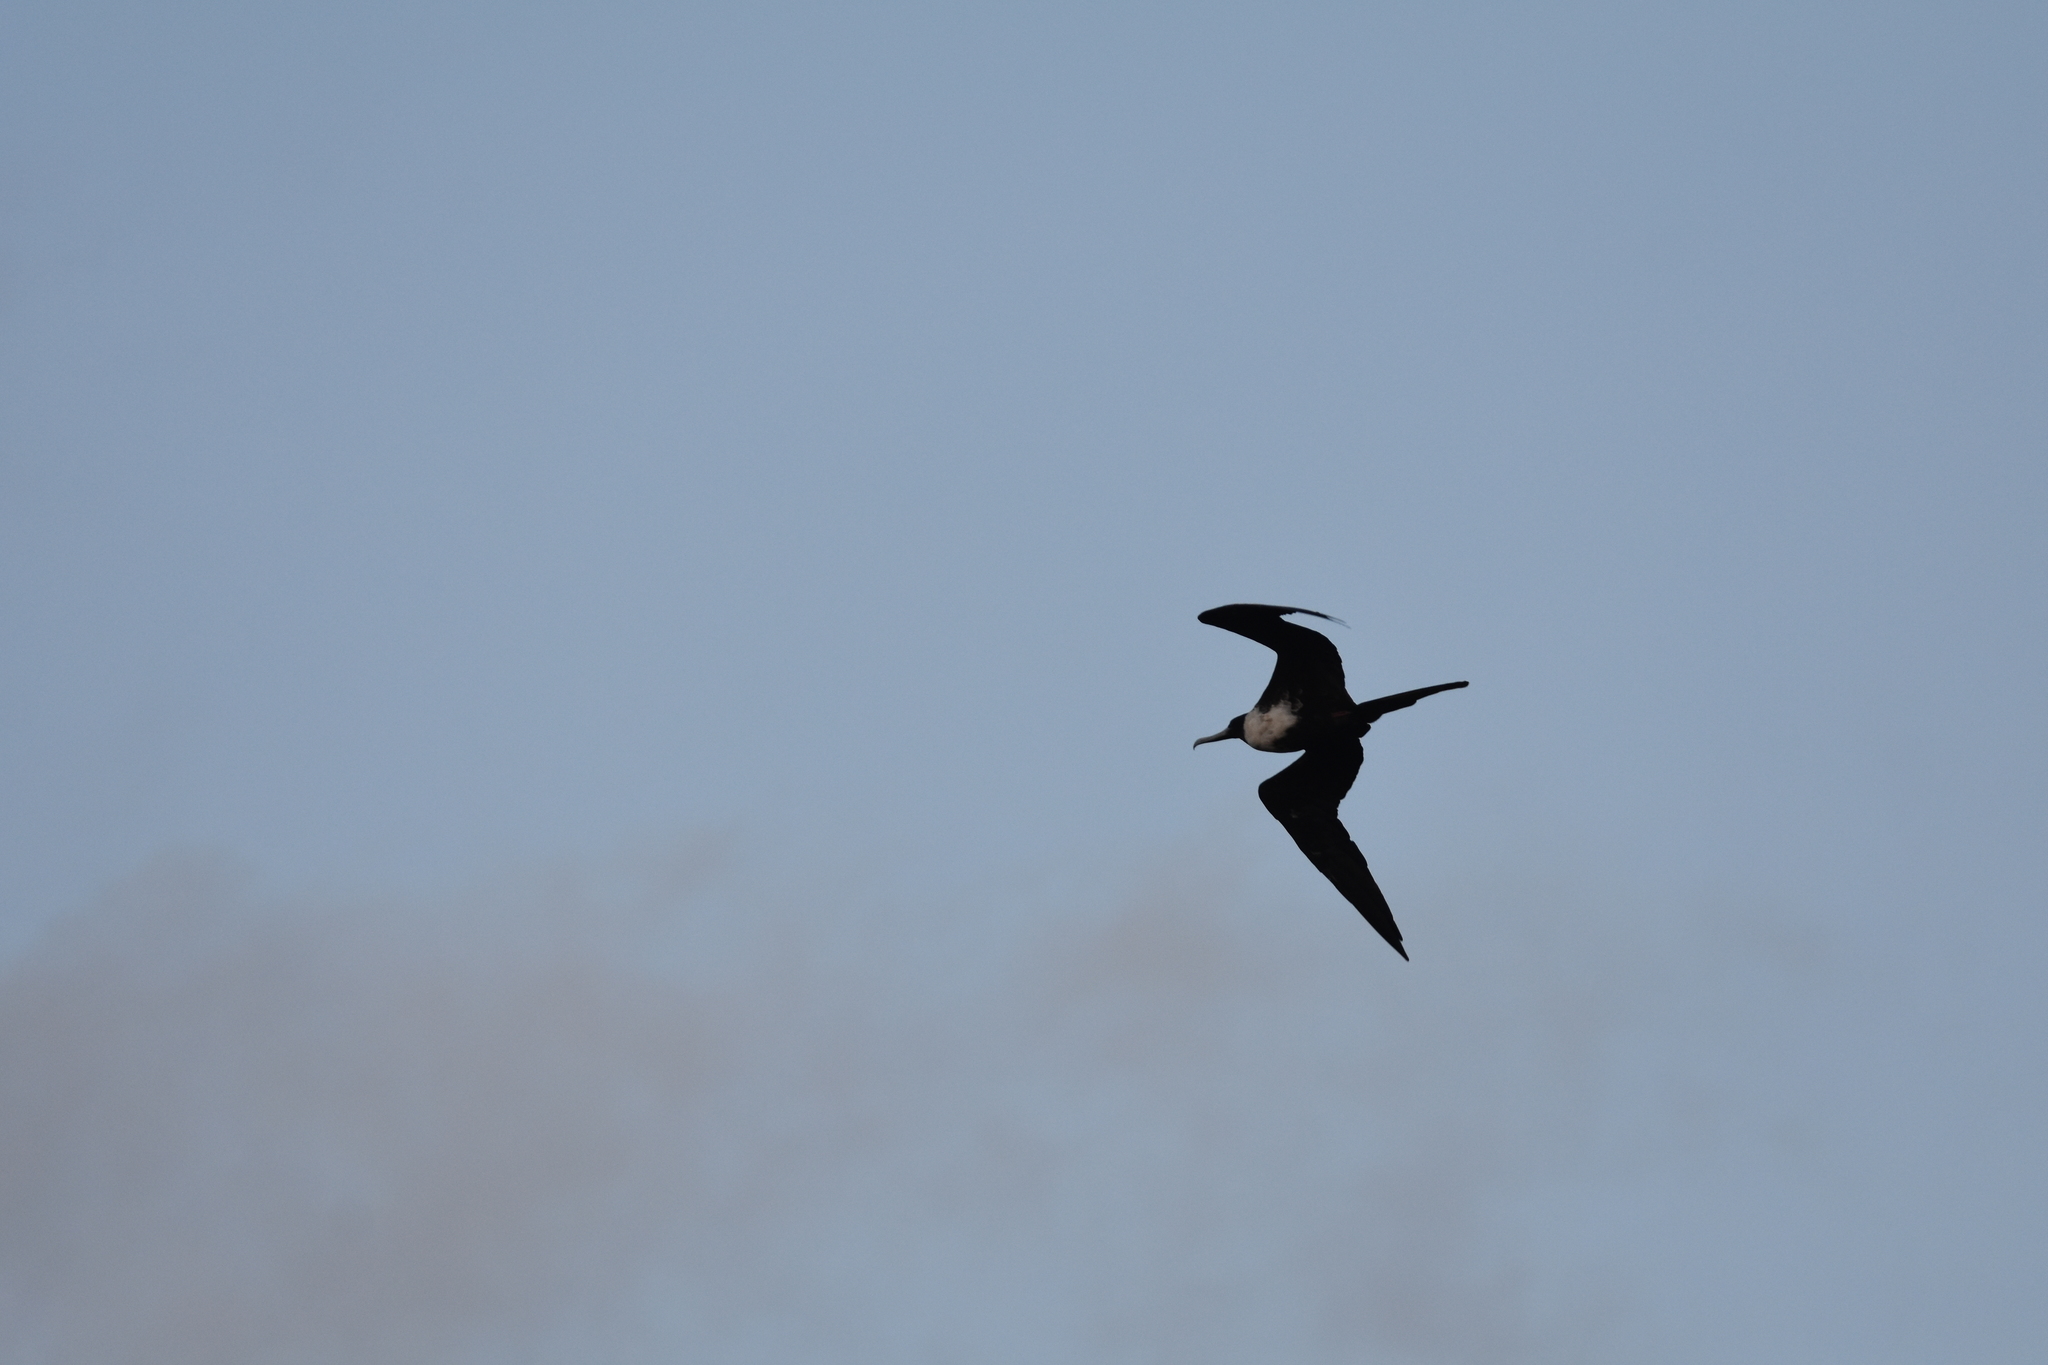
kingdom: Animalia
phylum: Chordata
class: Aves
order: Suliformes
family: Fregatidae
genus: Fregata
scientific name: Fregata magnificens
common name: Magnificent frigatebird
